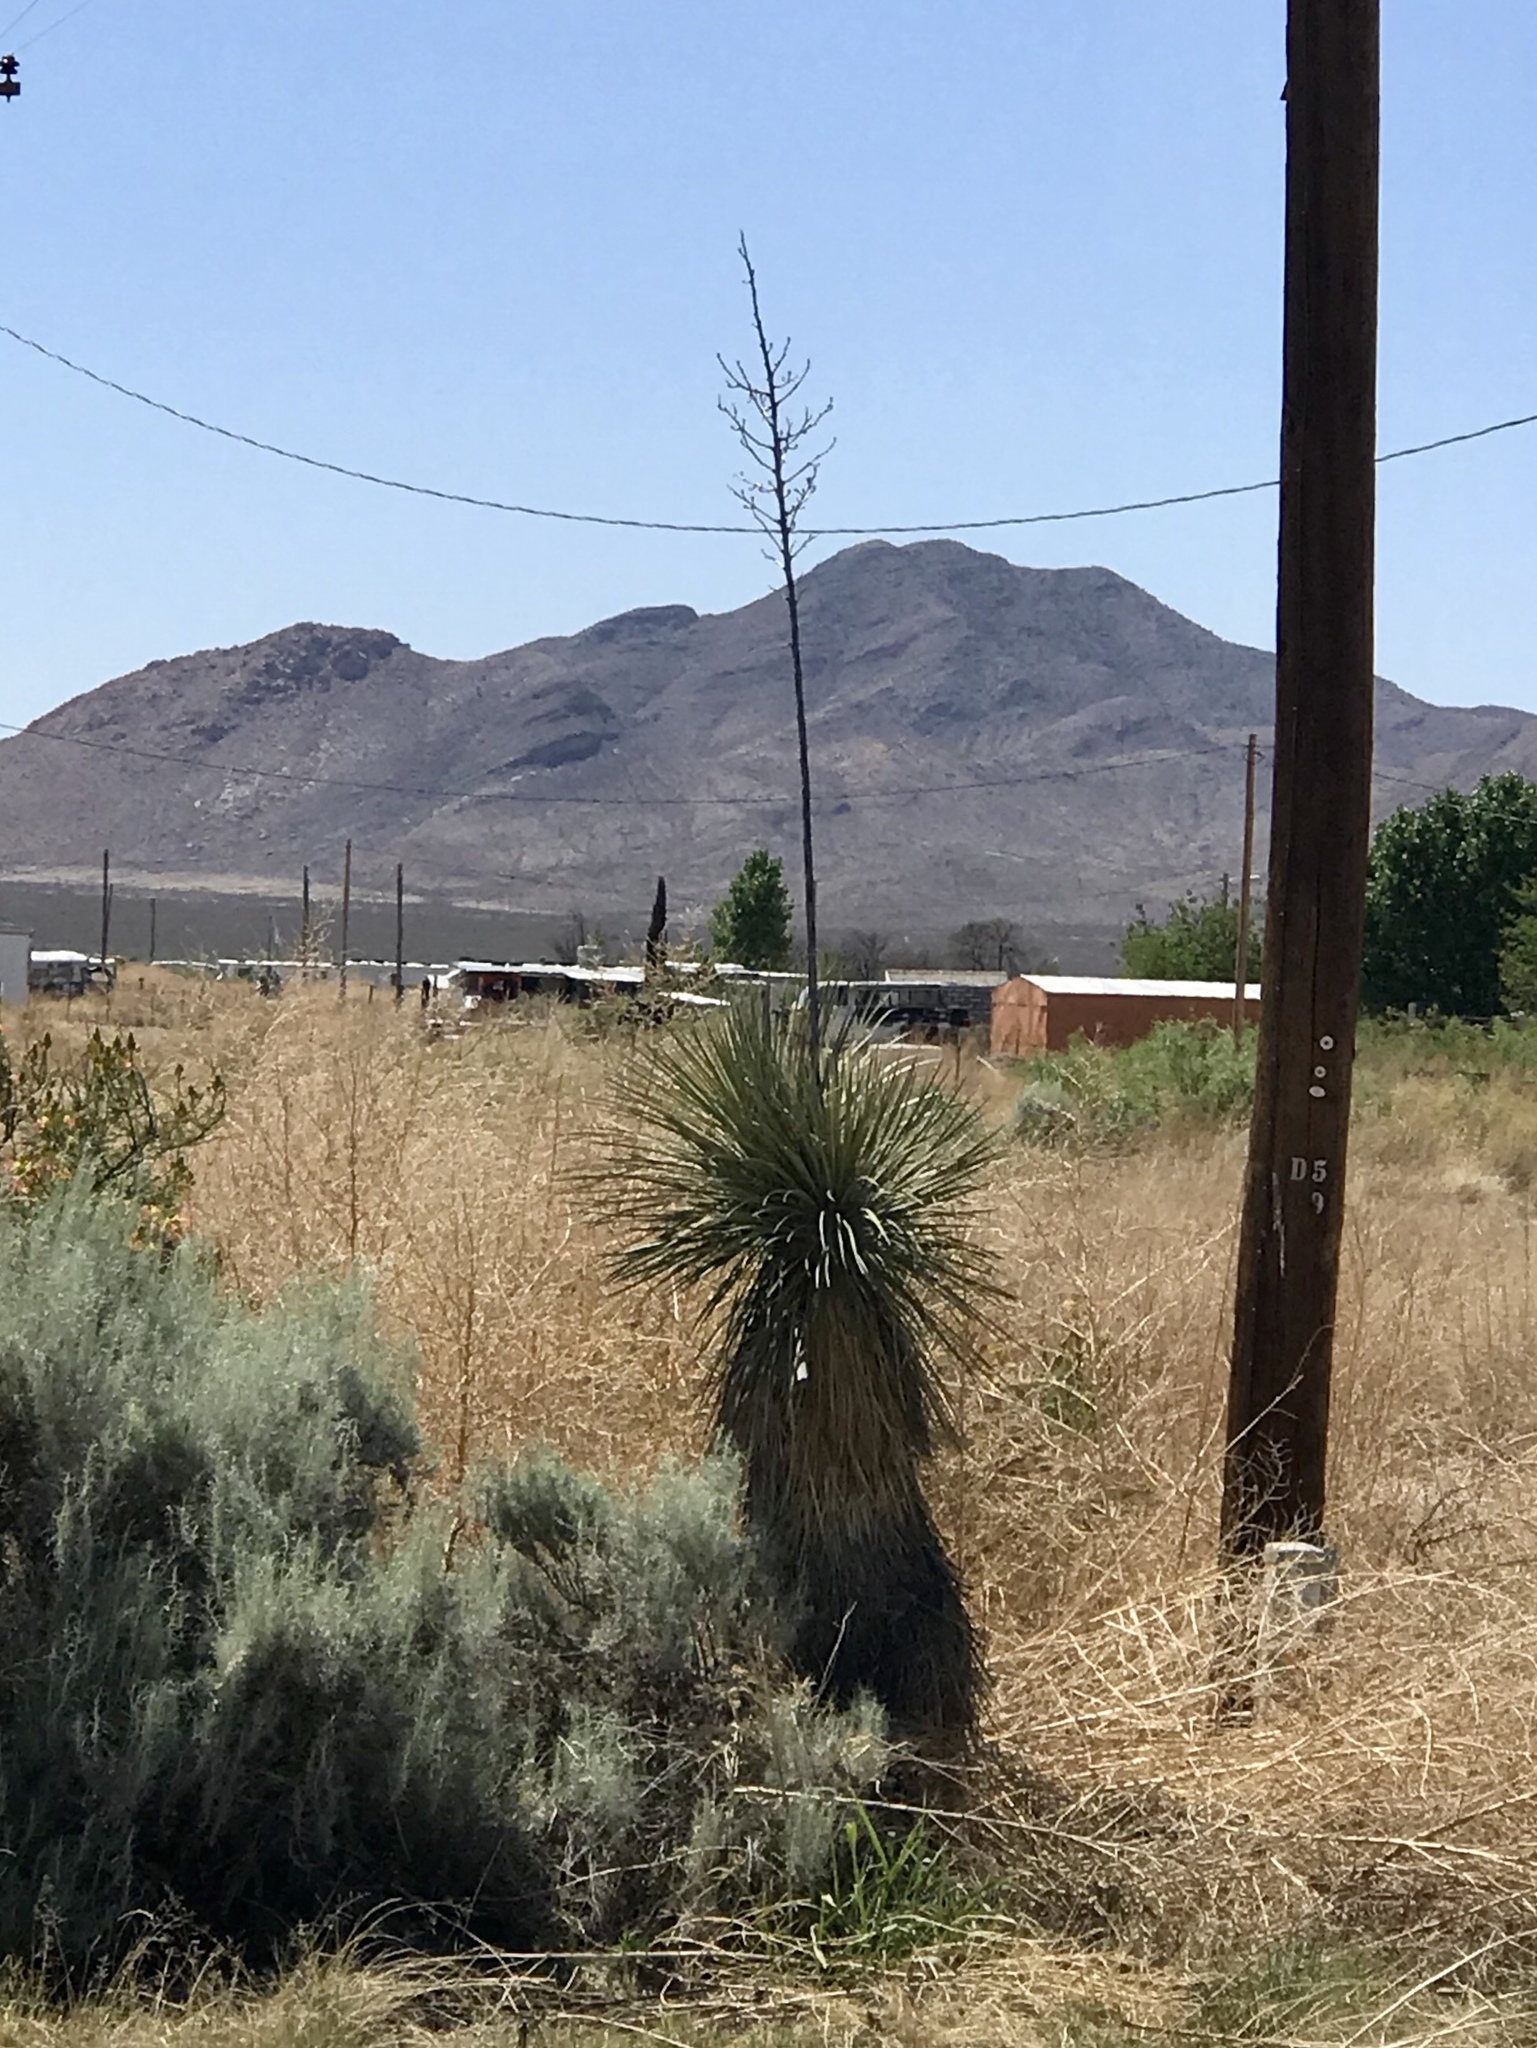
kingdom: Plantae
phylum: Tracheophyta
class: Liliopsida
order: Asparagales
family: Asparagaceae
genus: Yucca
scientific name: Yucca elata
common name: Palmella
